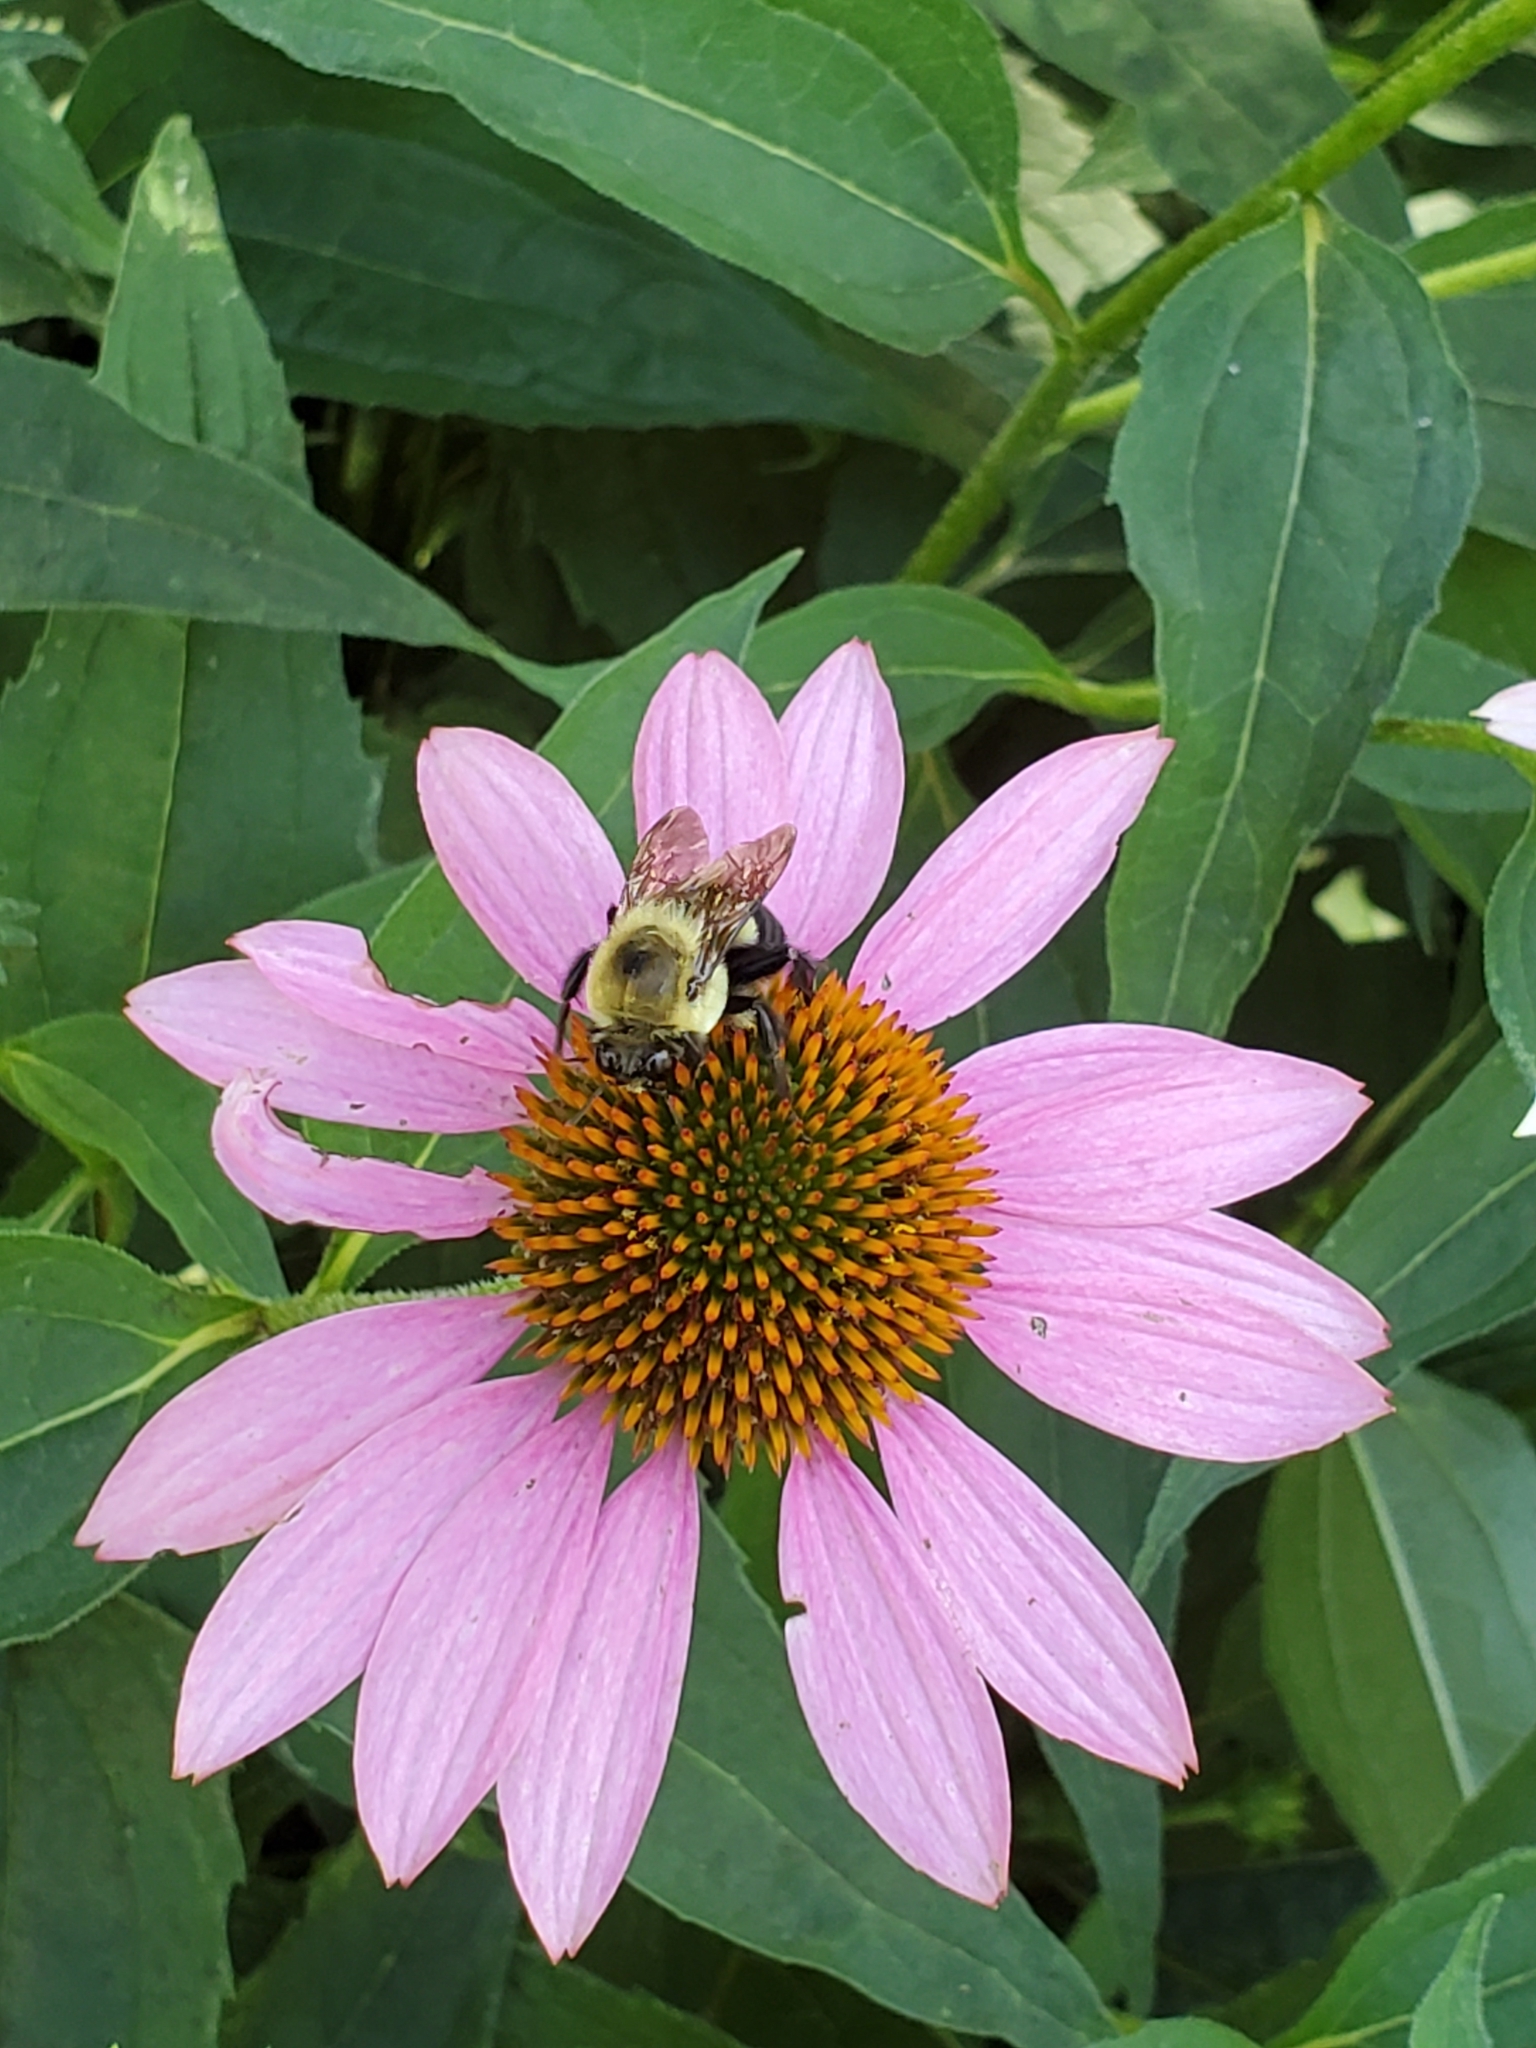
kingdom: Animalia
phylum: Arthropoda
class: Insecta
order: Hymenoptera
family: Apidae
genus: Bombus
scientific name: Bombus griseocollis
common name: Brown-belted bumble bee
